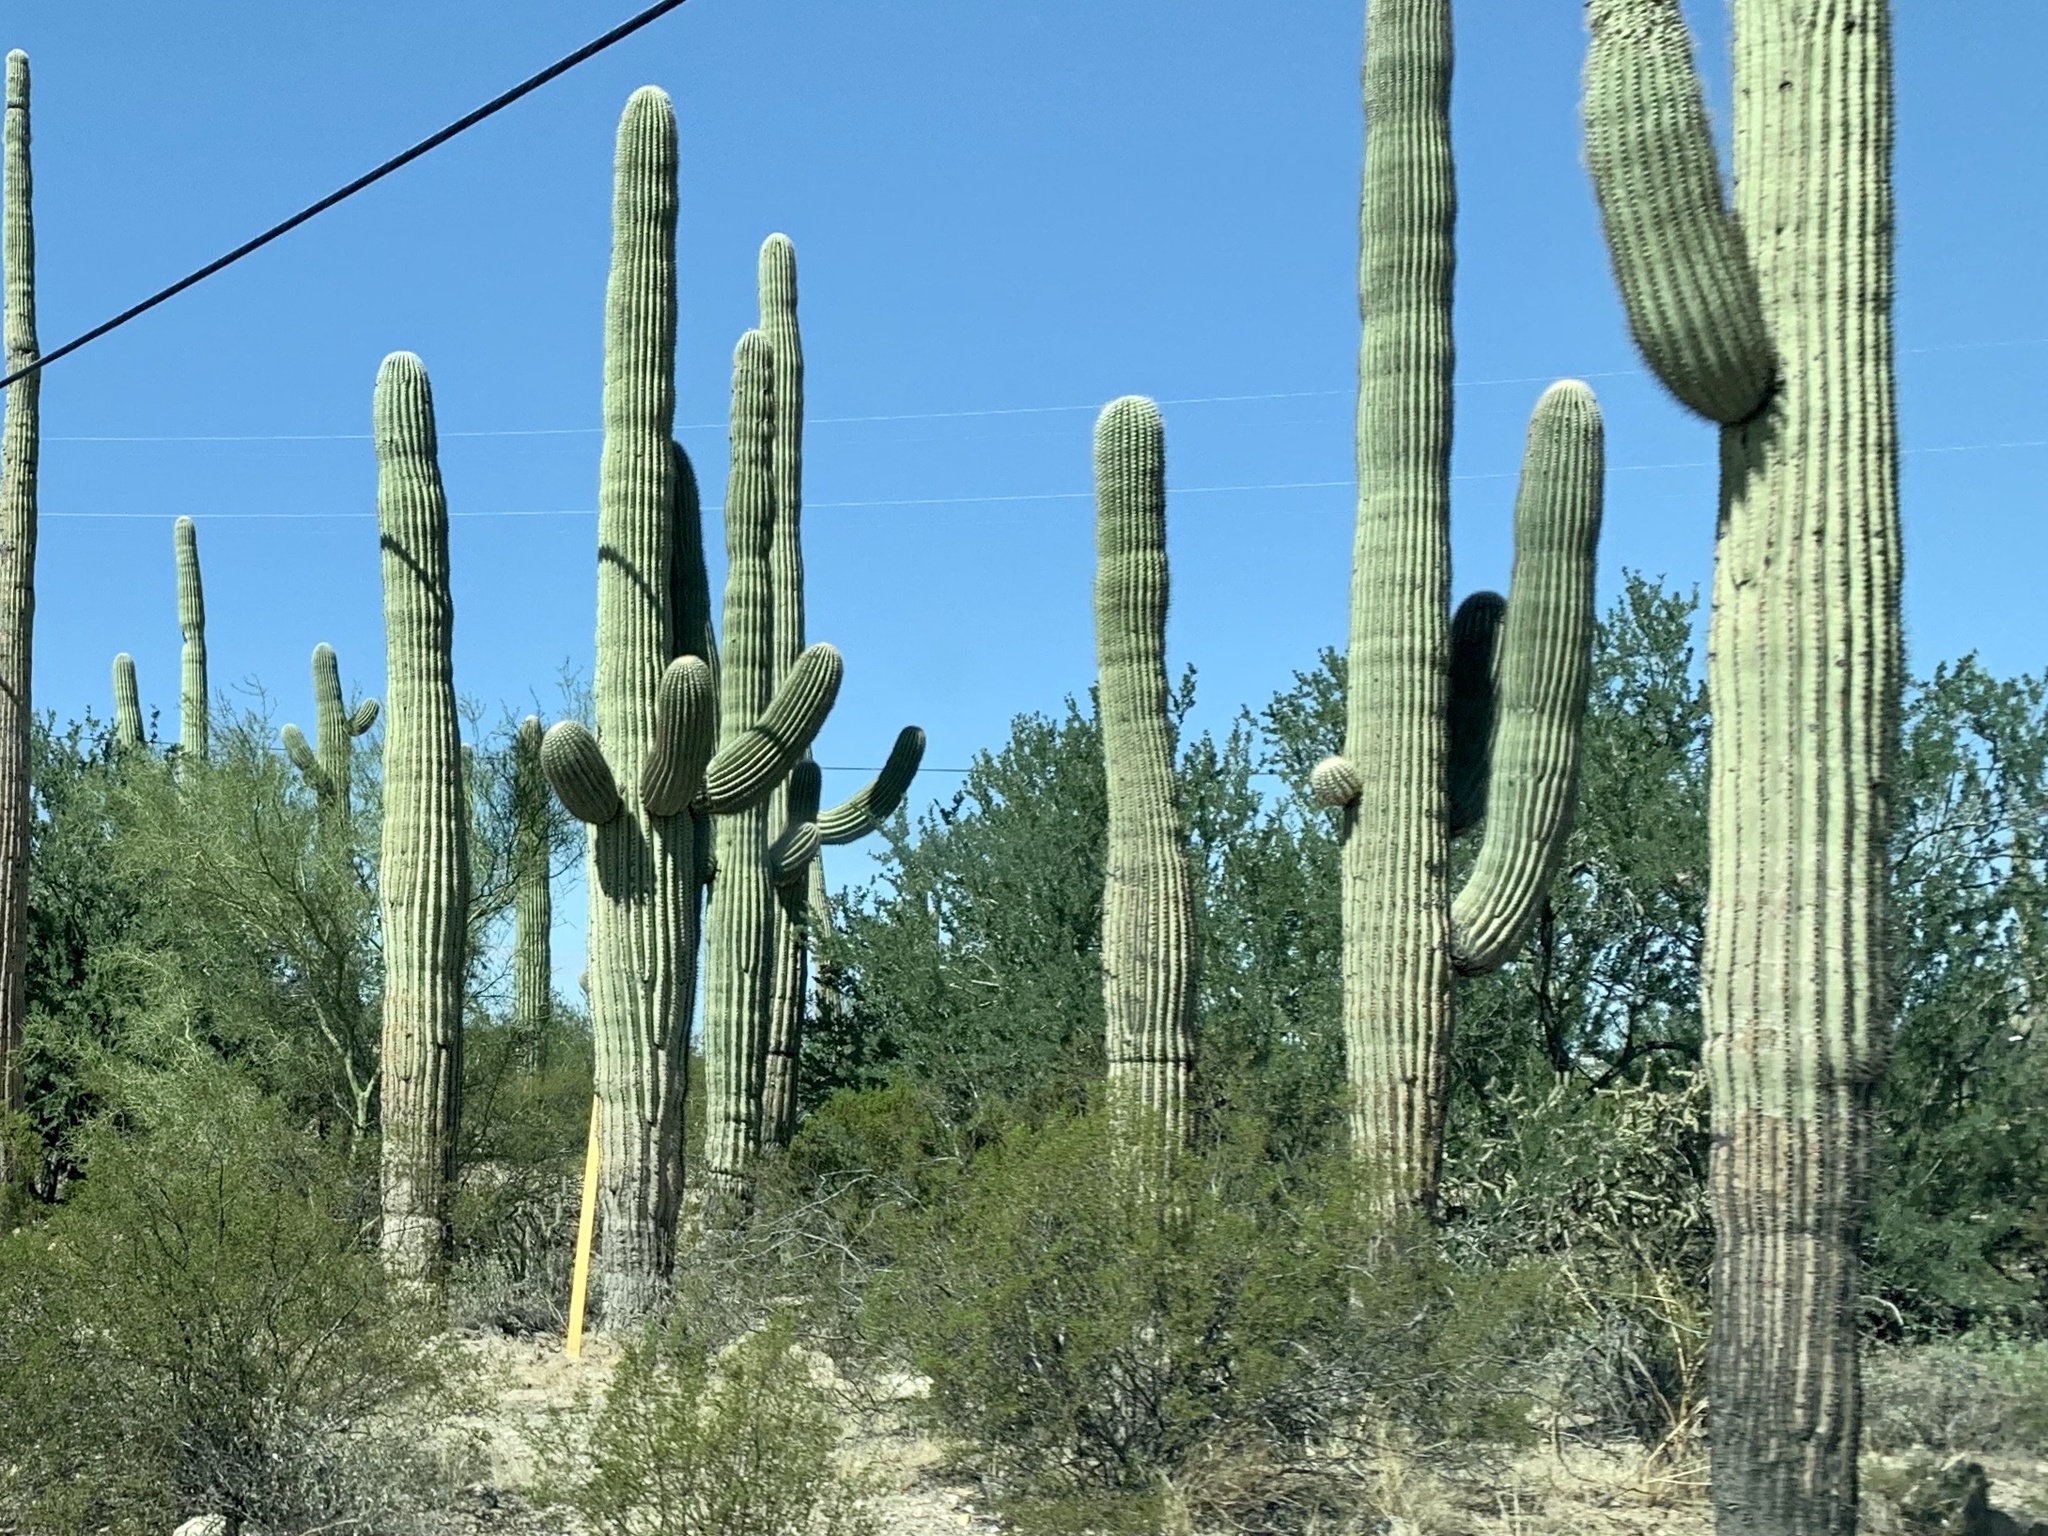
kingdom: Plantae
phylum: Tracheophyta
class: Magnoliopsida
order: Caryophyllales
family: Cactaceae
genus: Carnegiea
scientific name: Carnegiea gigantea
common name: Saguaro
